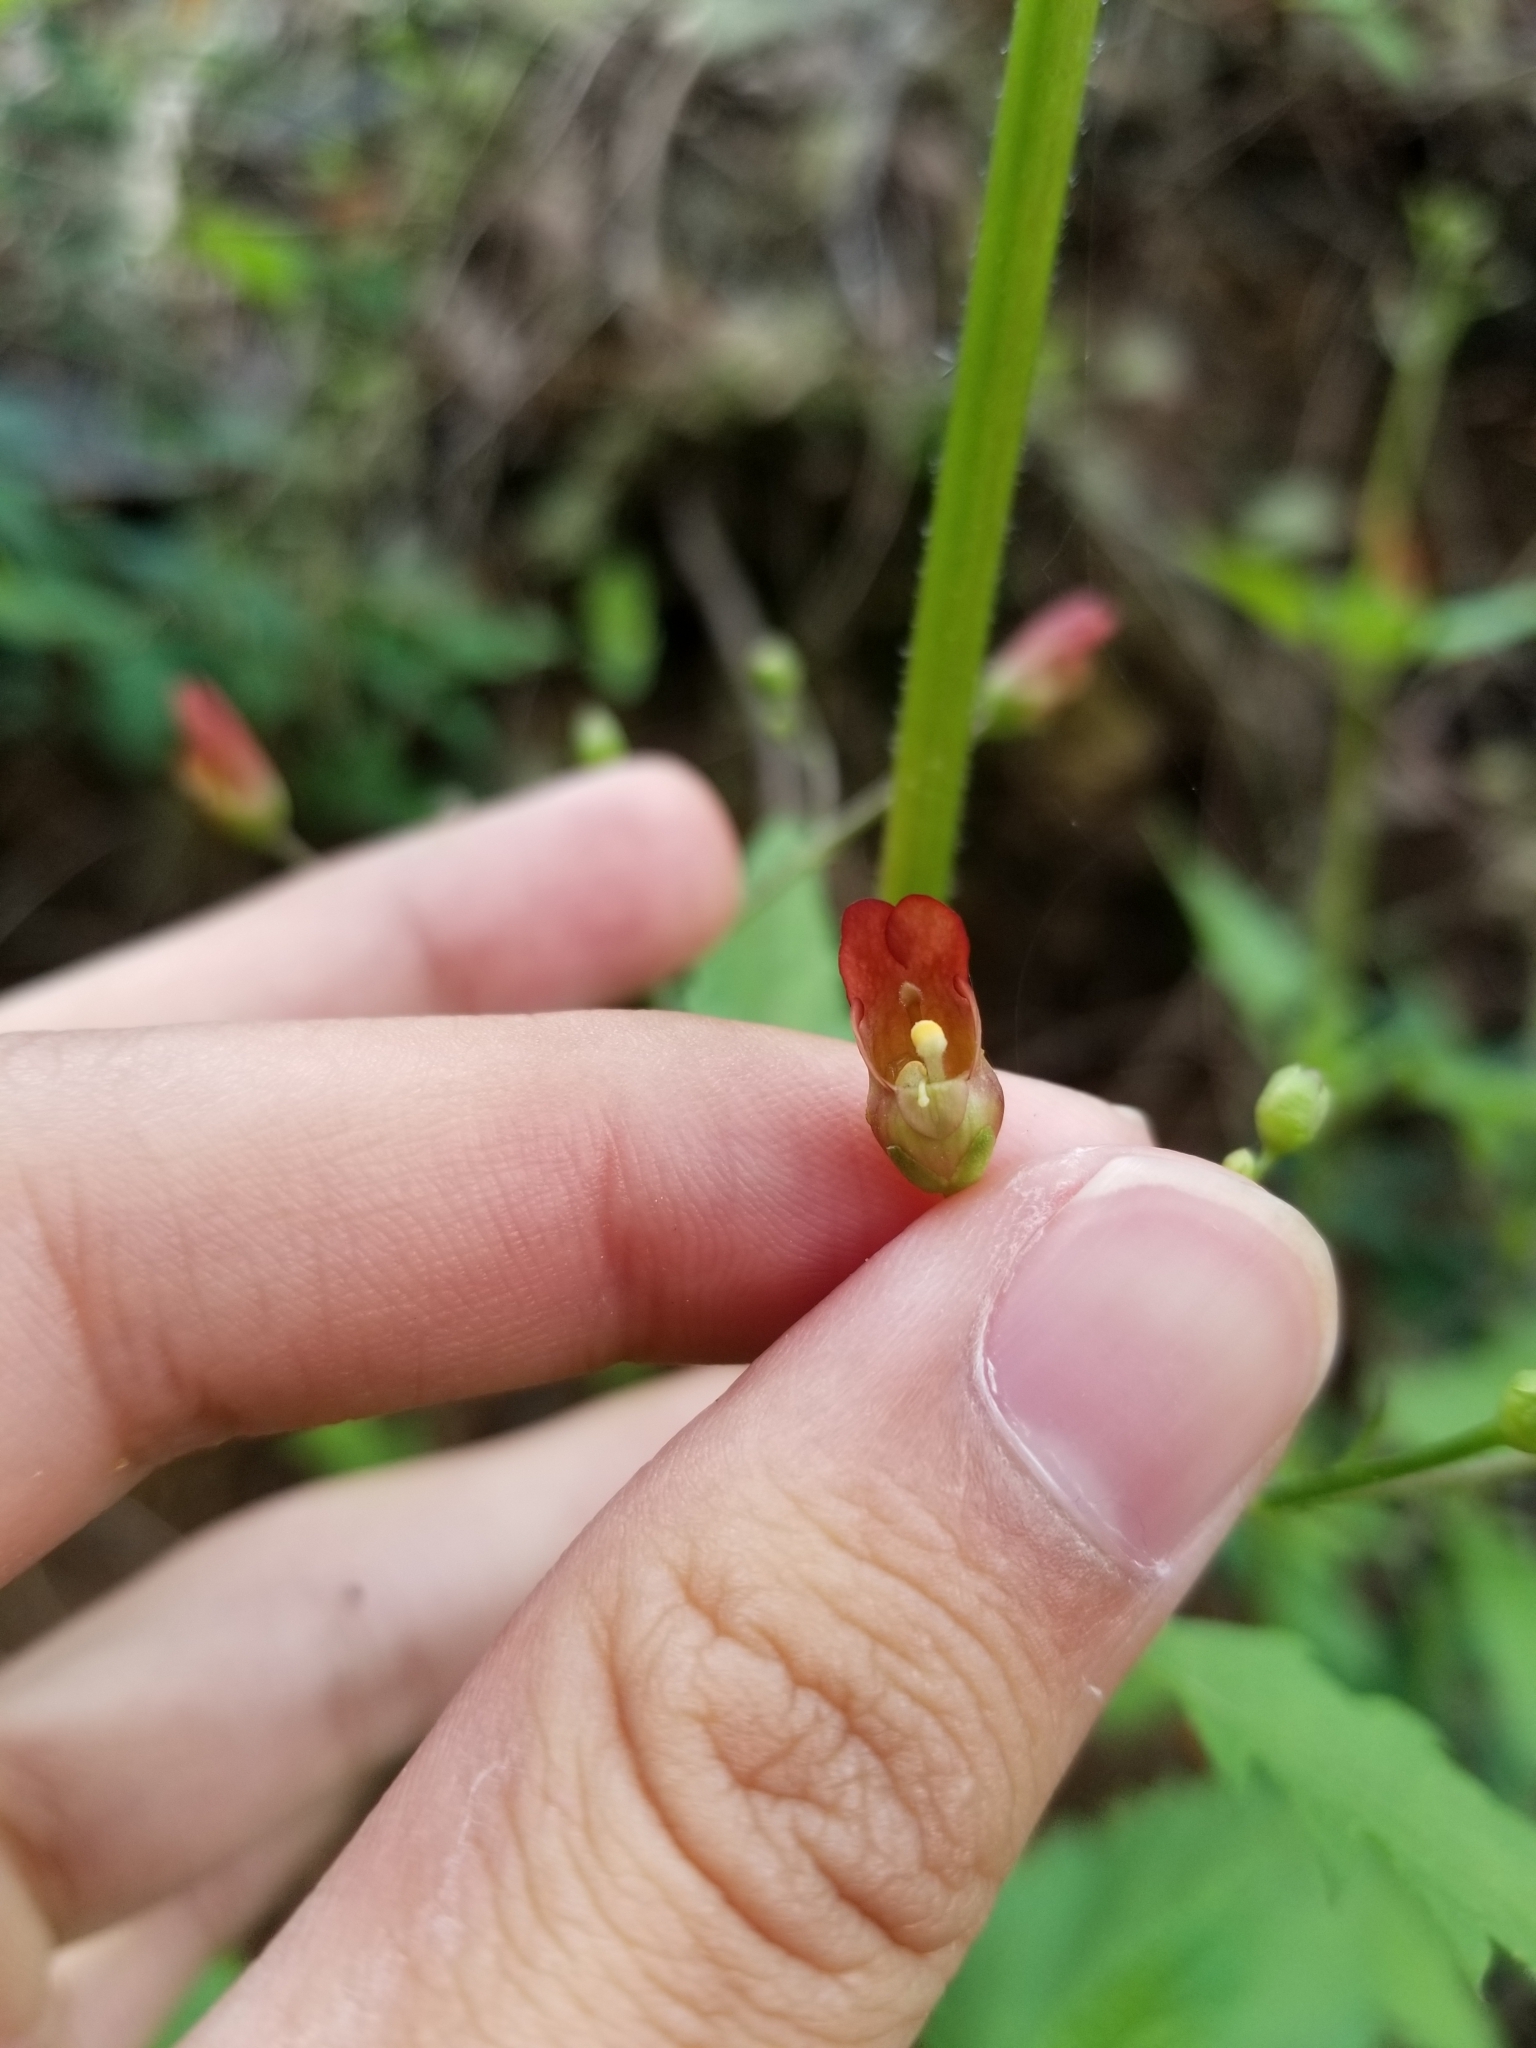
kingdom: Plantae
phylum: Tracheophyta
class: Magnoliopsida
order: Lamiales
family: Scrophulariaceae
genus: Scrophularia
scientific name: Scrophularia californica
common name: California figwort
